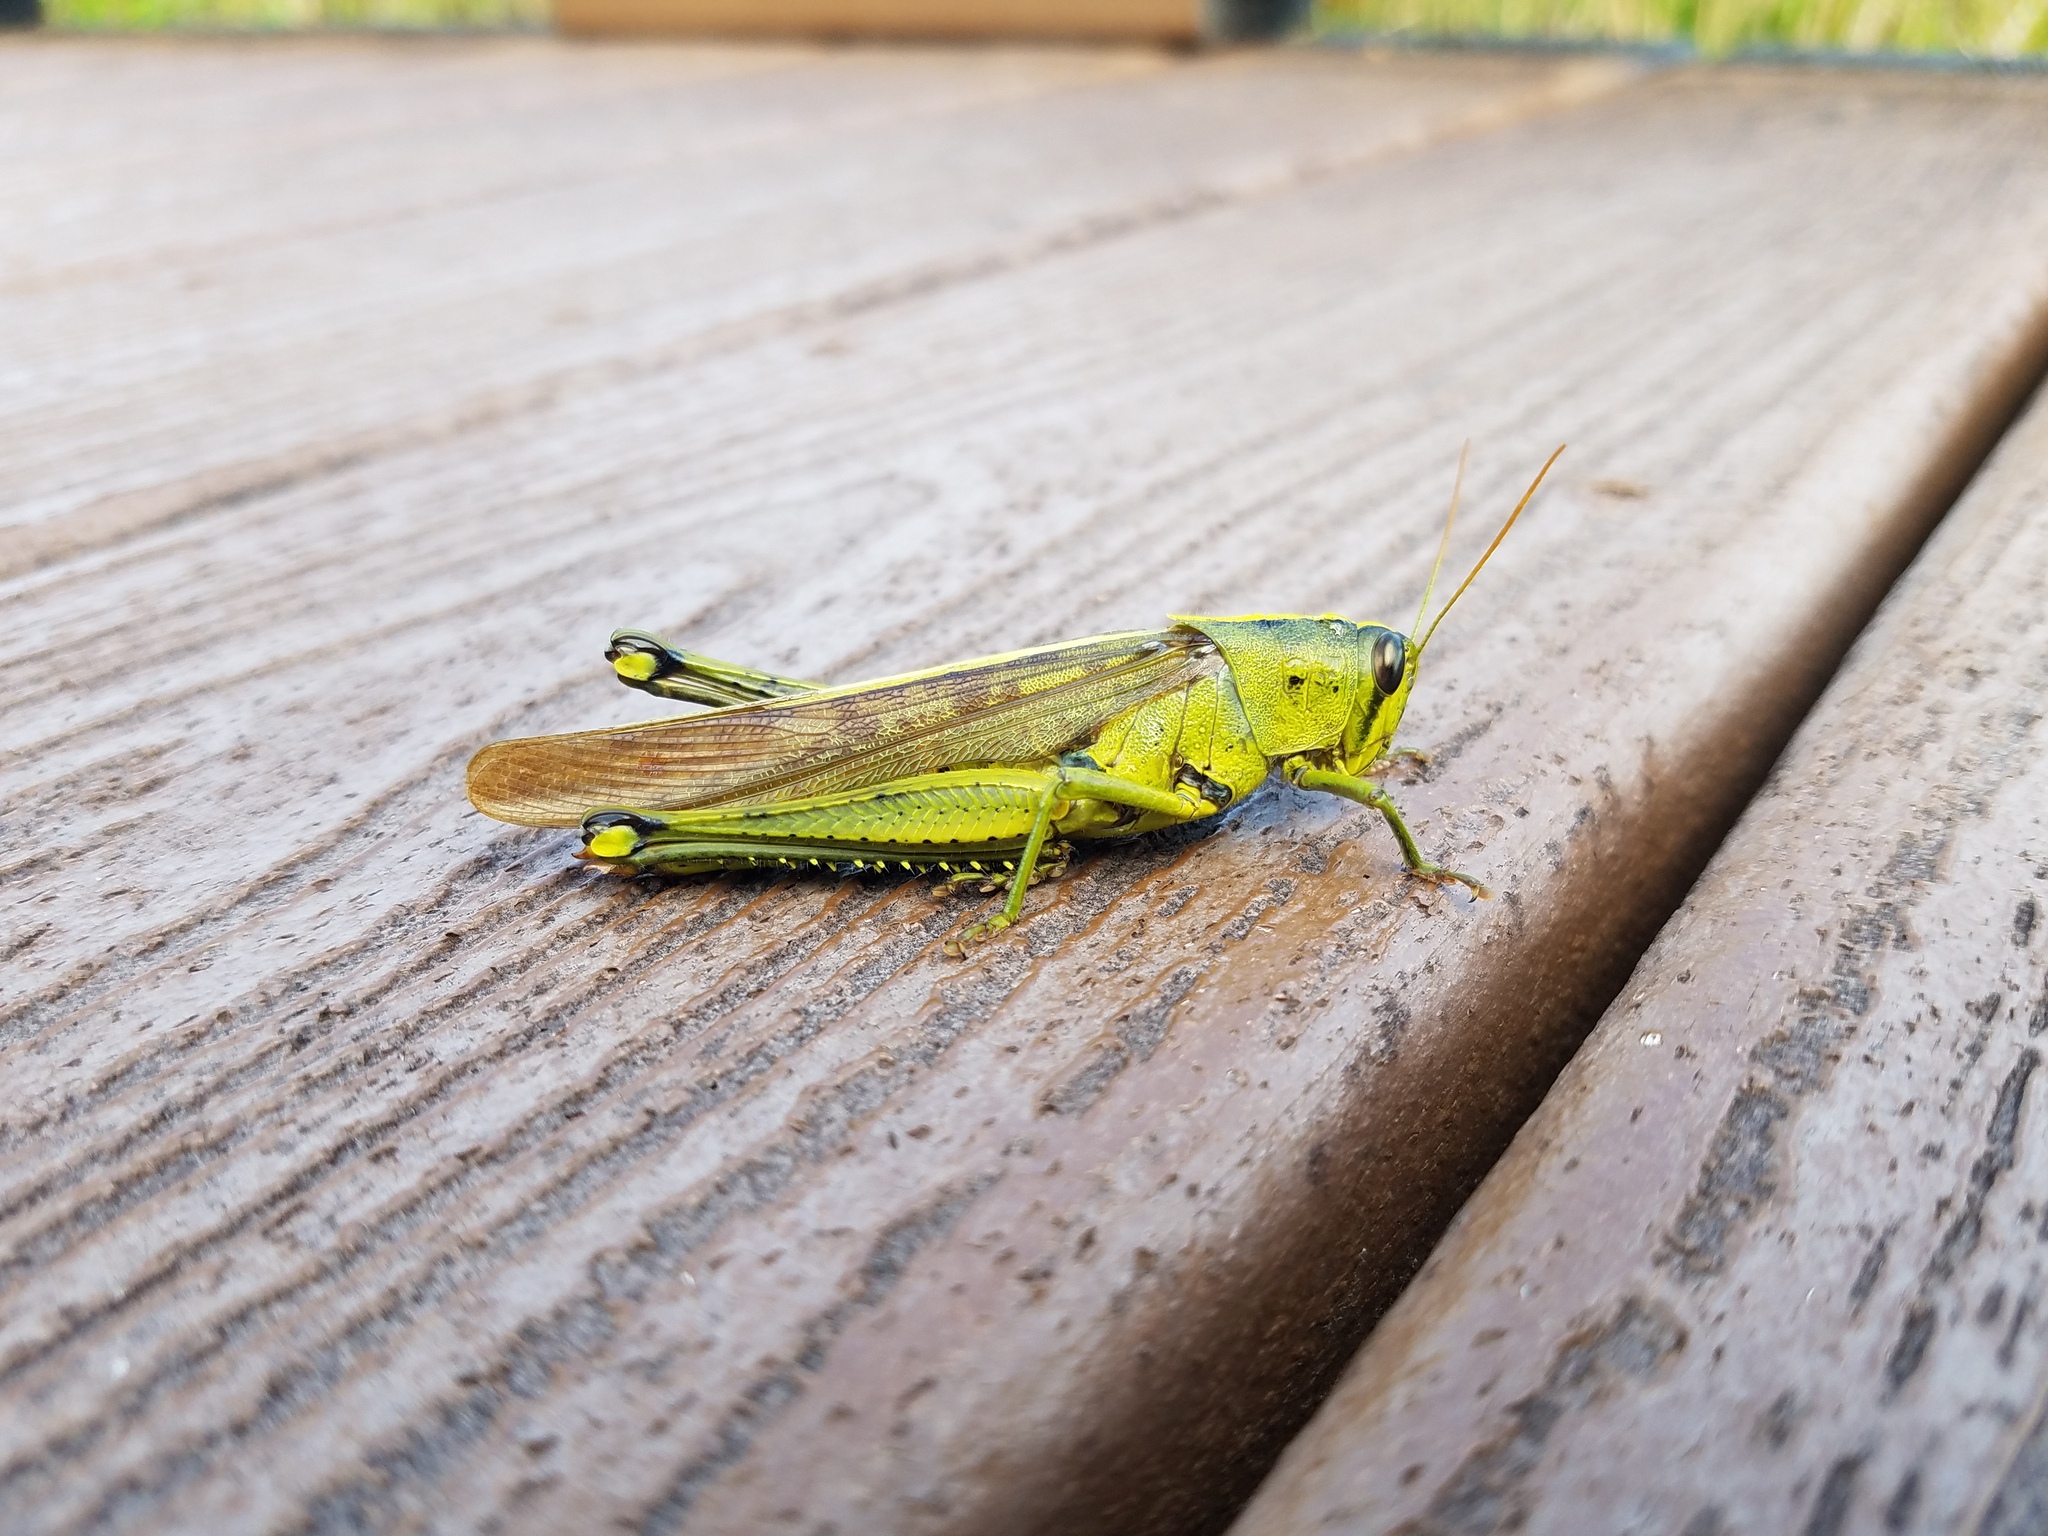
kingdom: Animalia
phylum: Arthropoda
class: Insecta
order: Orthoptera
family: Acrididae
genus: Schistocerca
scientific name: Schistocerca alutacea
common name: Leather-colored bird locust
